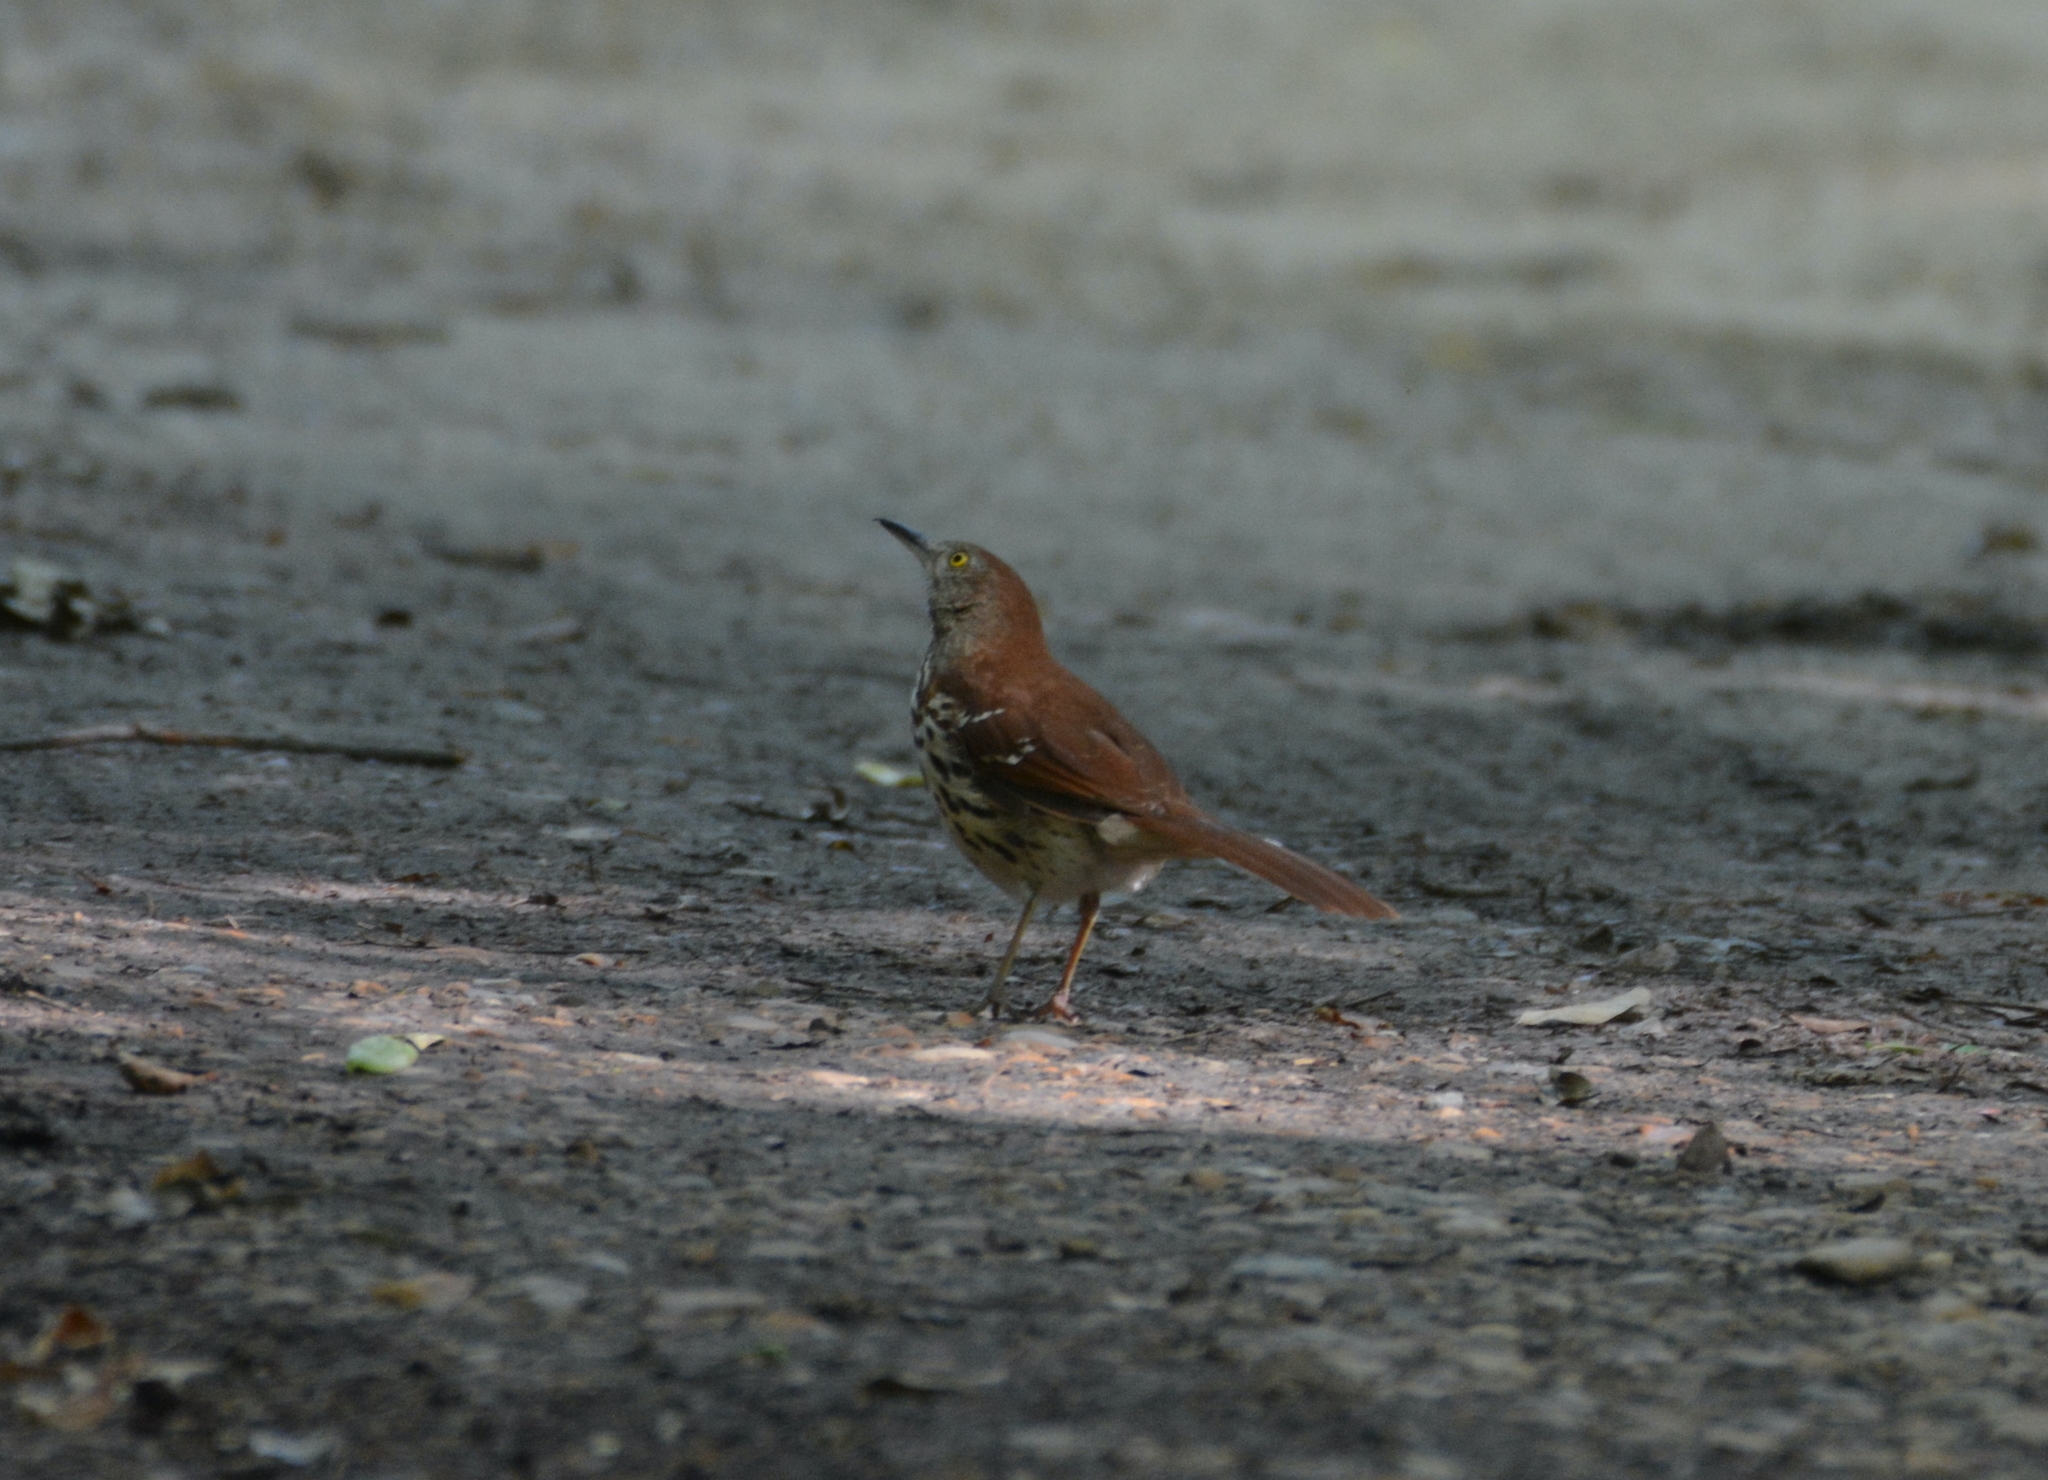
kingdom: Animalia
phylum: Chordata
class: Aves
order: Passeriformes
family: Mimidae
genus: Toxostoma
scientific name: Toxostoma rufum
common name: Brown thrasher
